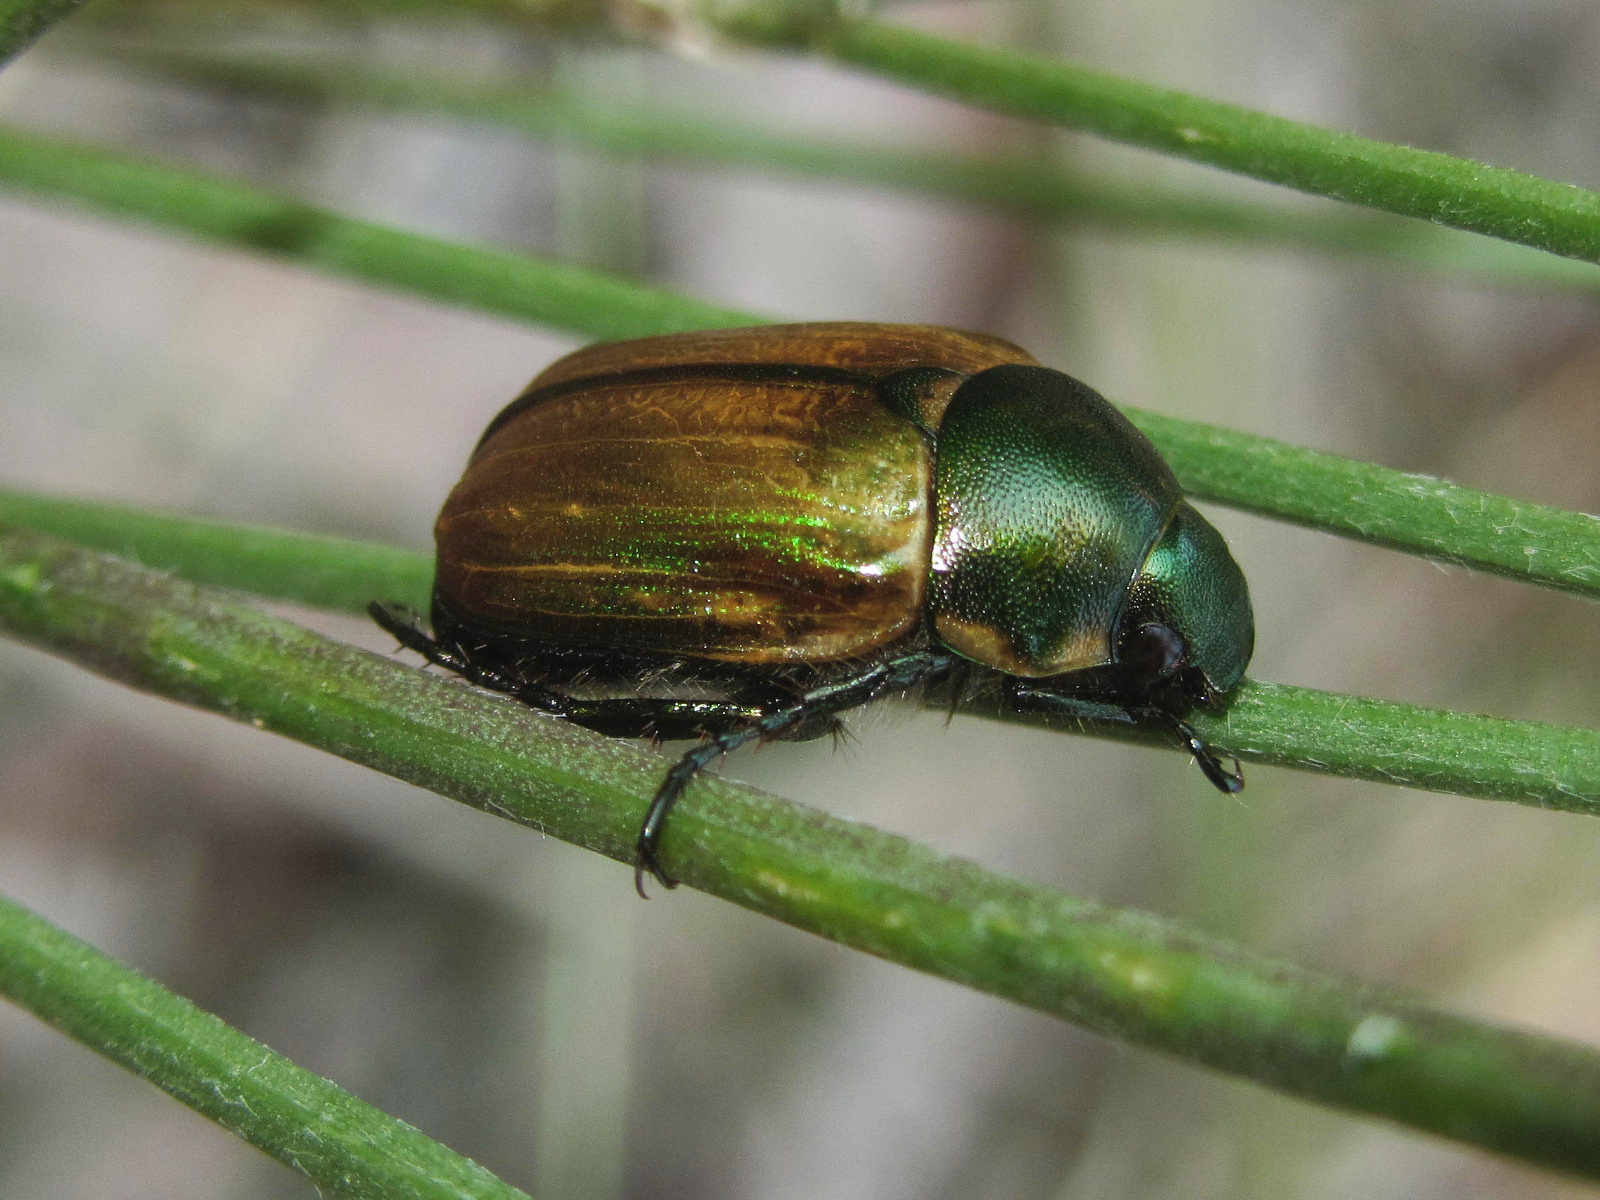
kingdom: Animalia
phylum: Arthropoda
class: Insecta
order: Coleoptera
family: Scarabaeidae
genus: Anomala
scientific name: Anomala dubia
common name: Dune chafer
